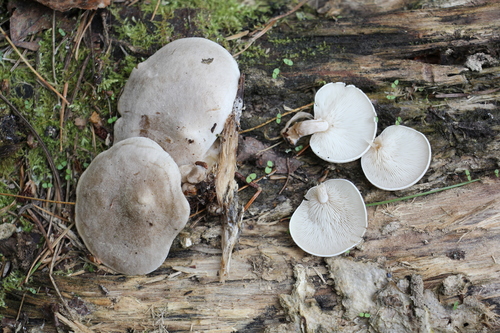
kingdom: Fungi
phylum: Basidiomycota
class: Agaricomycetes
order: Agaricales
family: Lyophyllaceae
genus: Ossicaulis
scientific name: Ossicaulis lignatilis
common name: Mealy oyster
